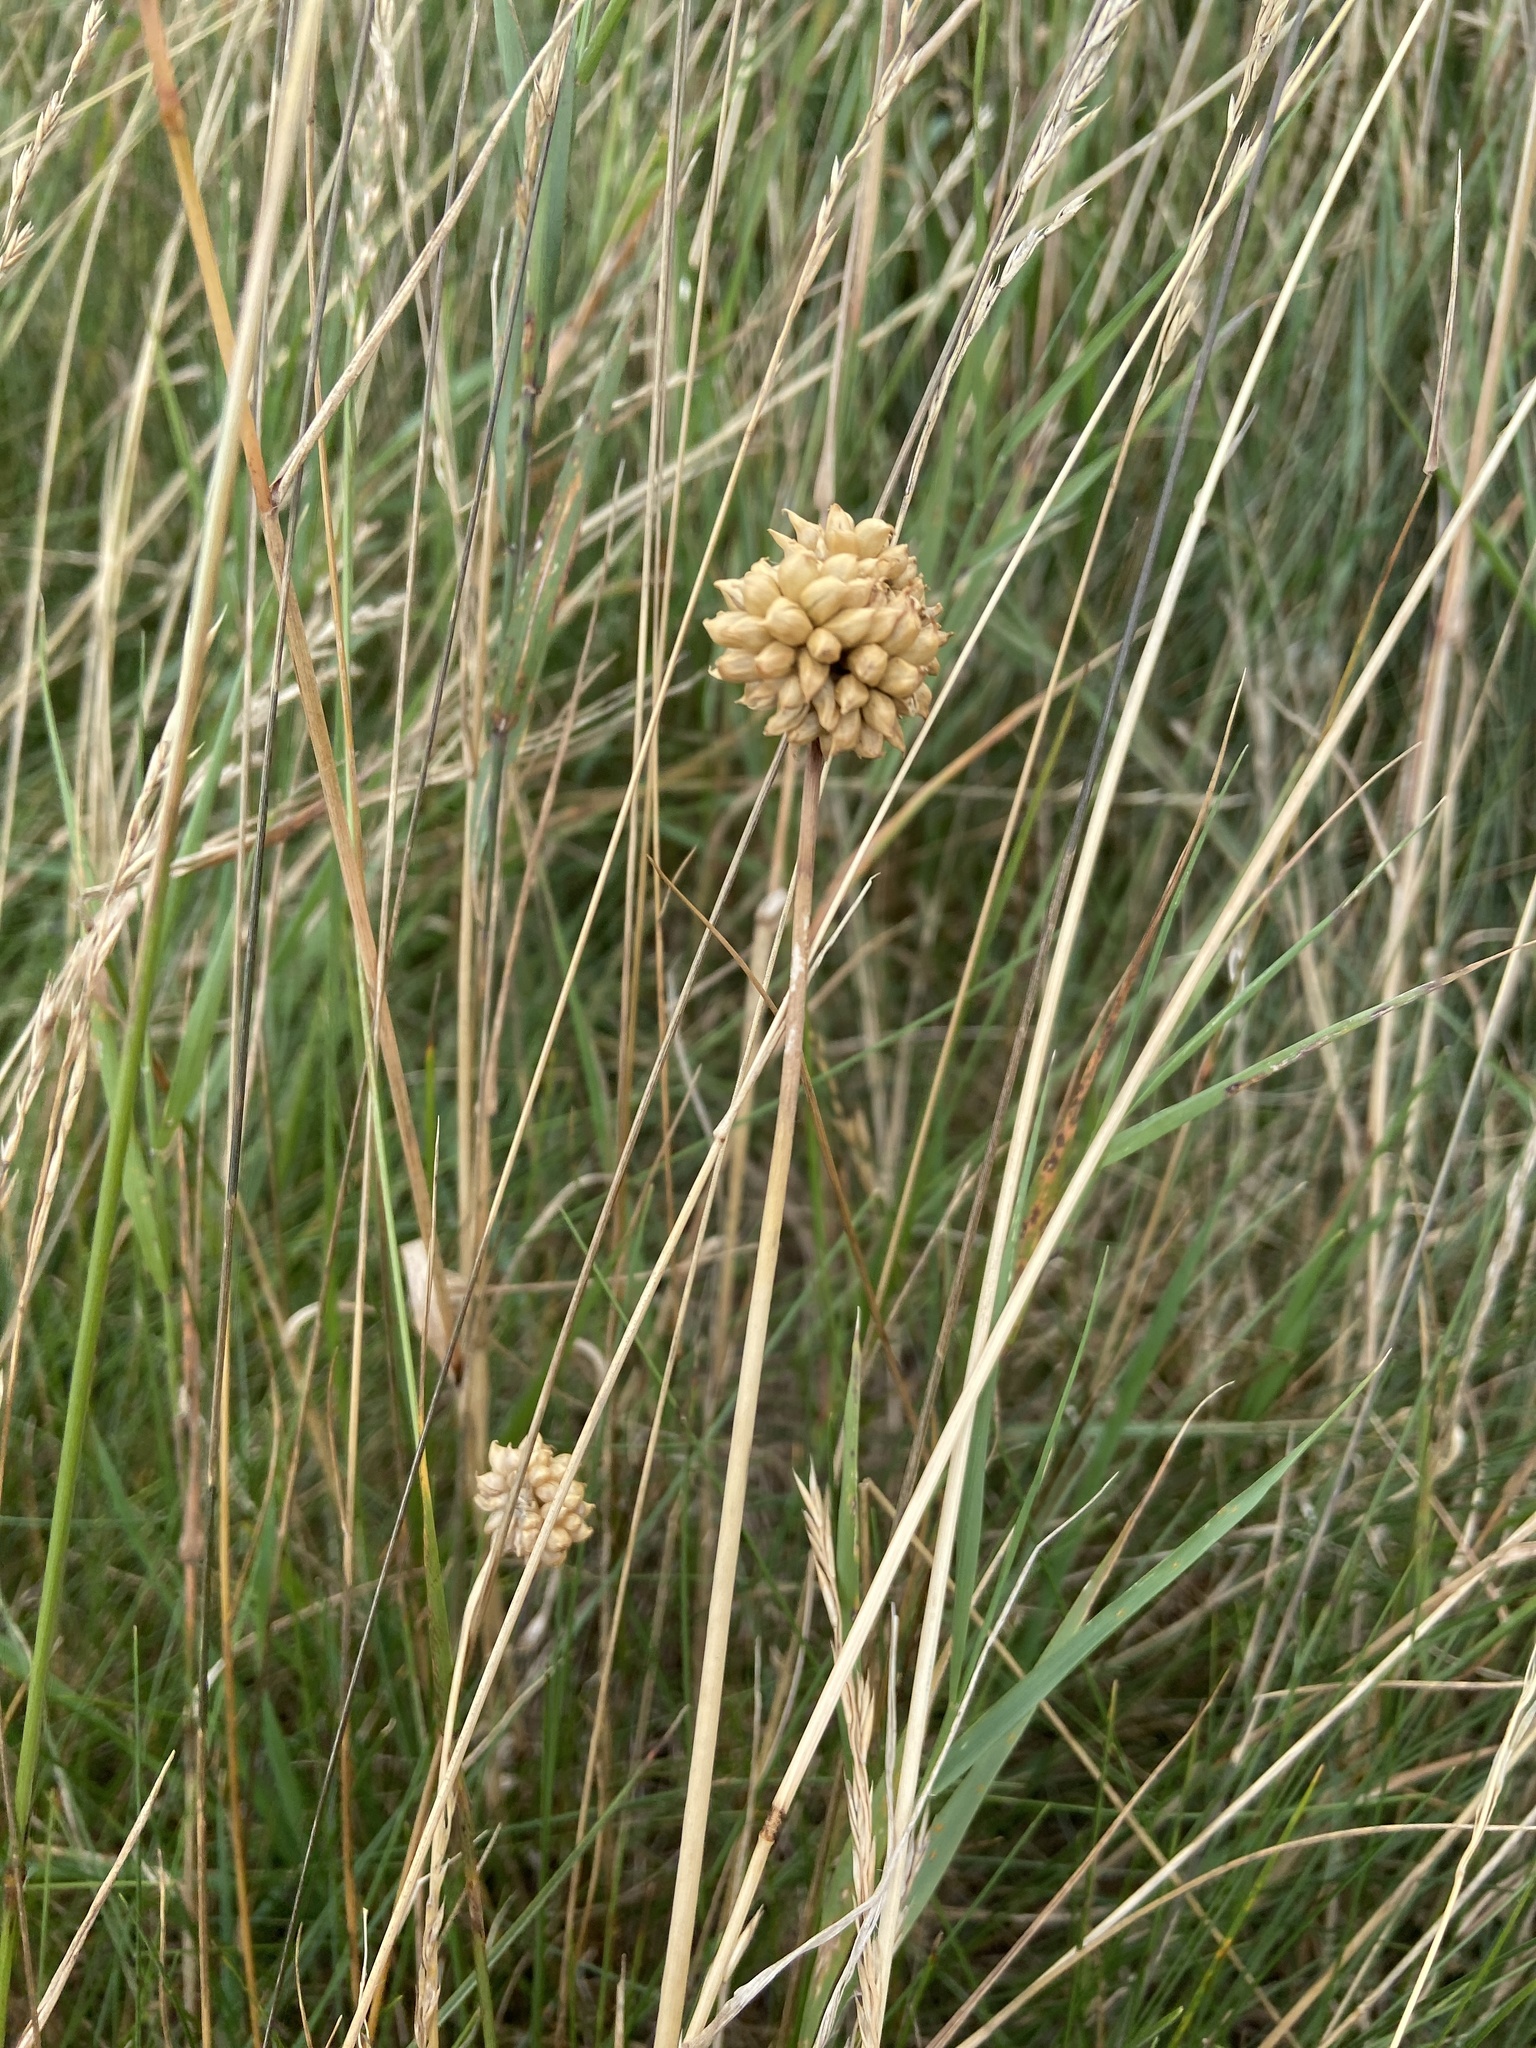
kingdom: Plantae
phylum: Tracheophyta
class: Liliopsida
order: Asparagales
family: Amaryllidaceae
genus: Allium
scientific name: Allium vineale
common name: Crow garlic
